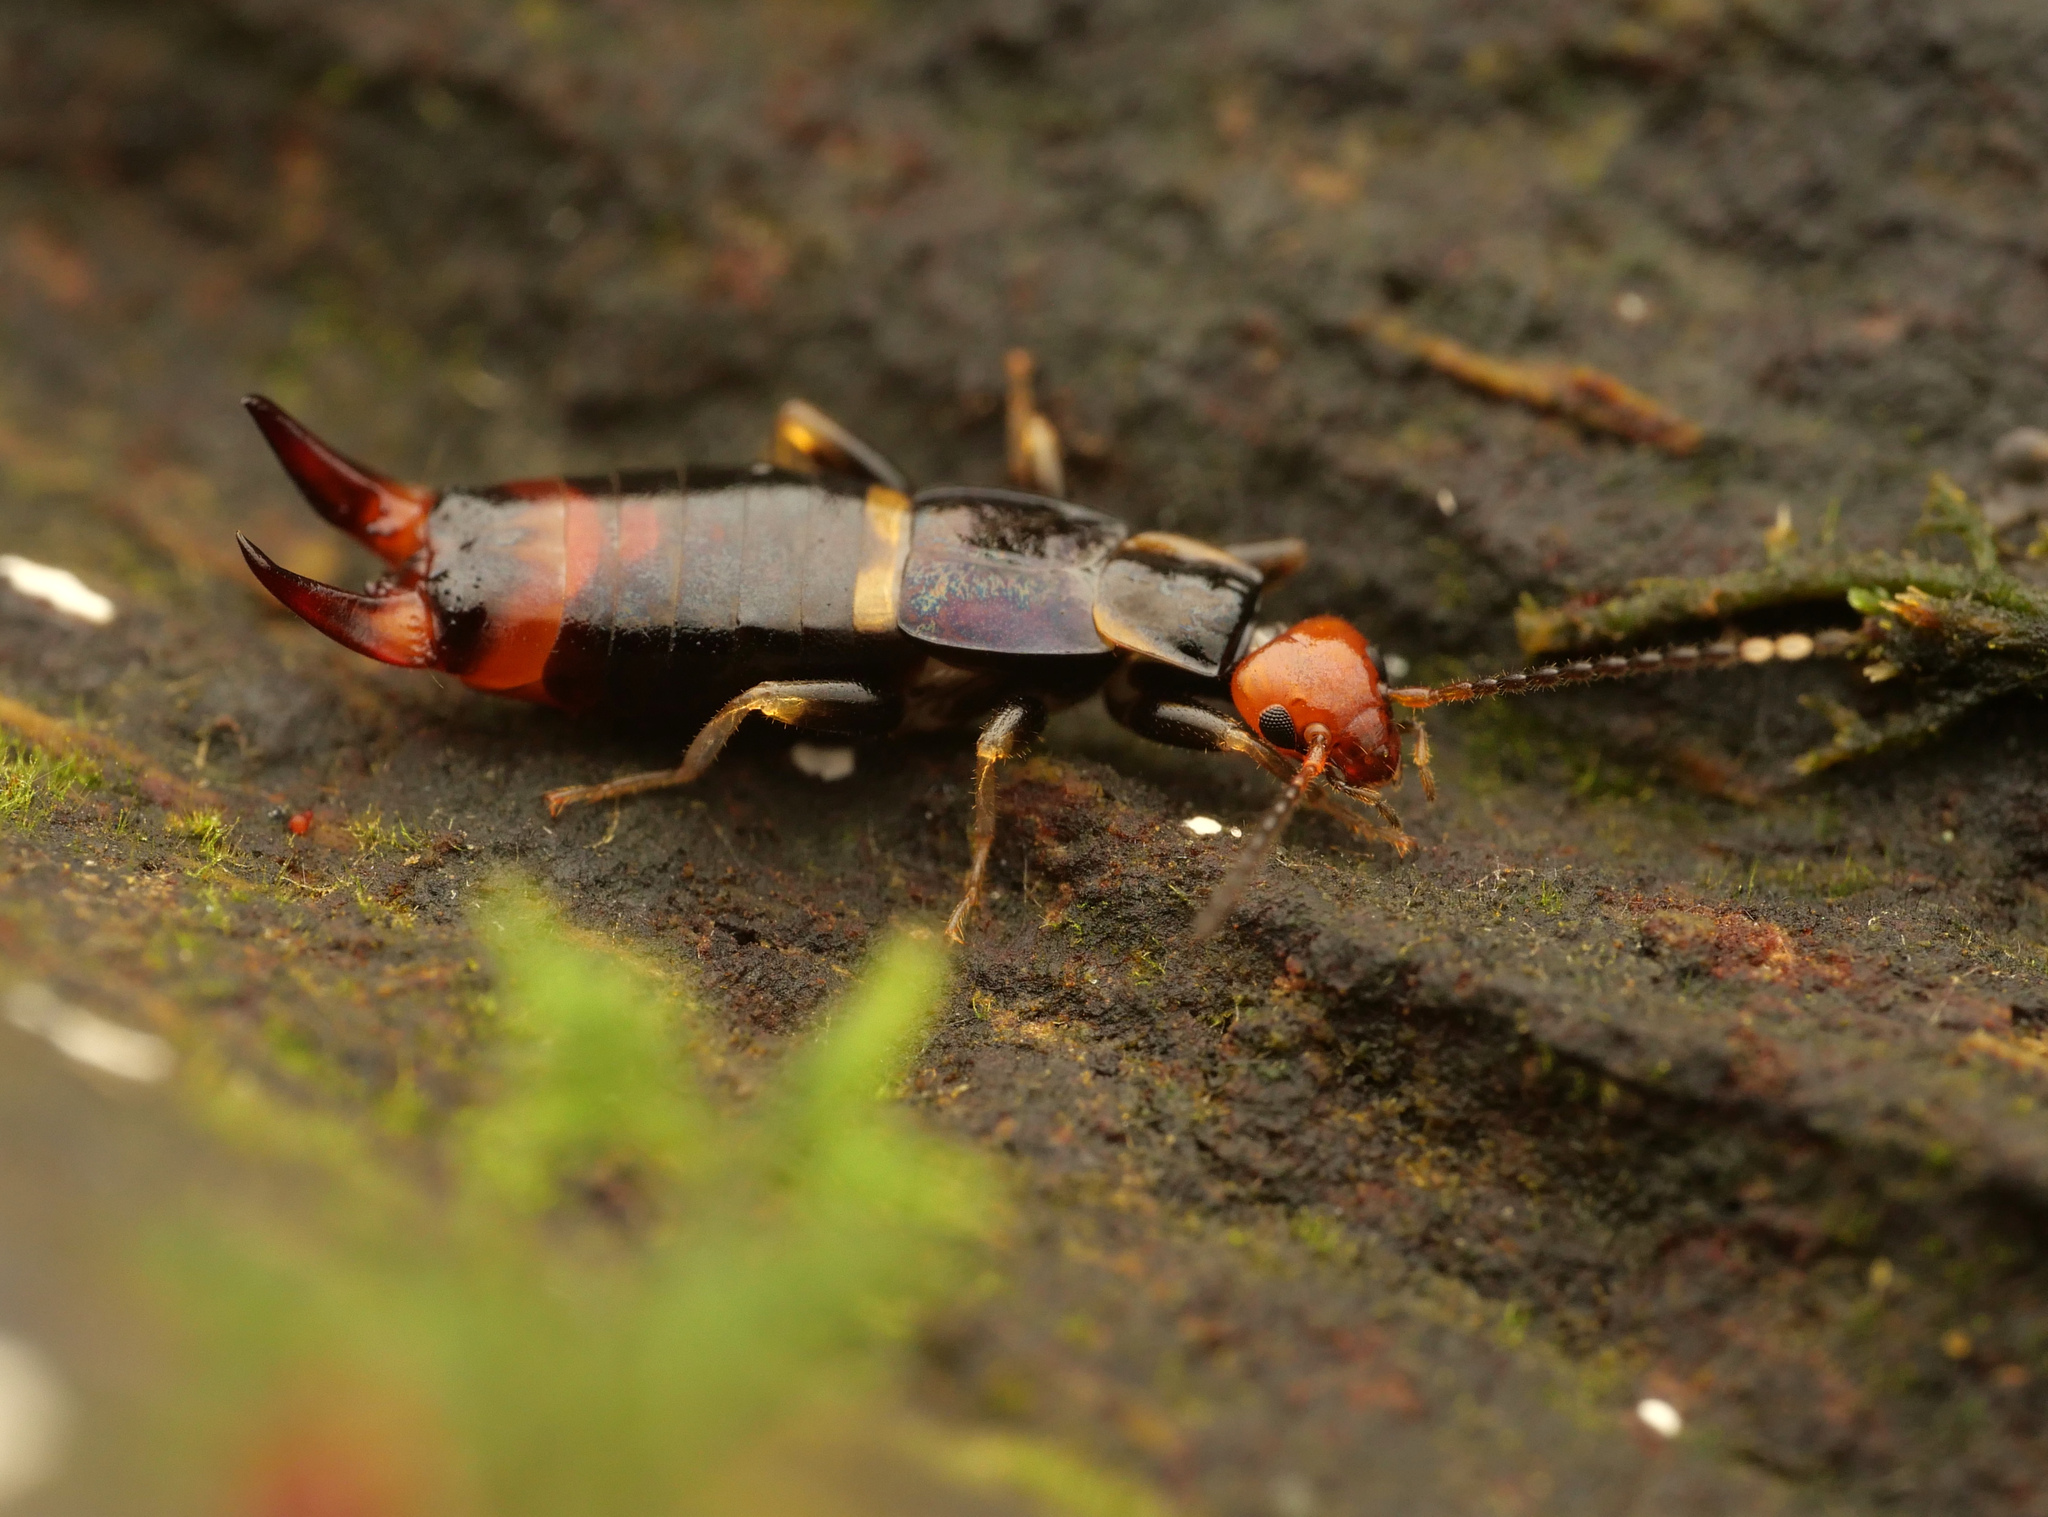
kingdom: Animalia
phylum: Arthropoda
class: Insecta
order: Dermaptera
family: Spongiphoridae
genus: Nesogaster
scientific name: Nesogaster aculeatus
